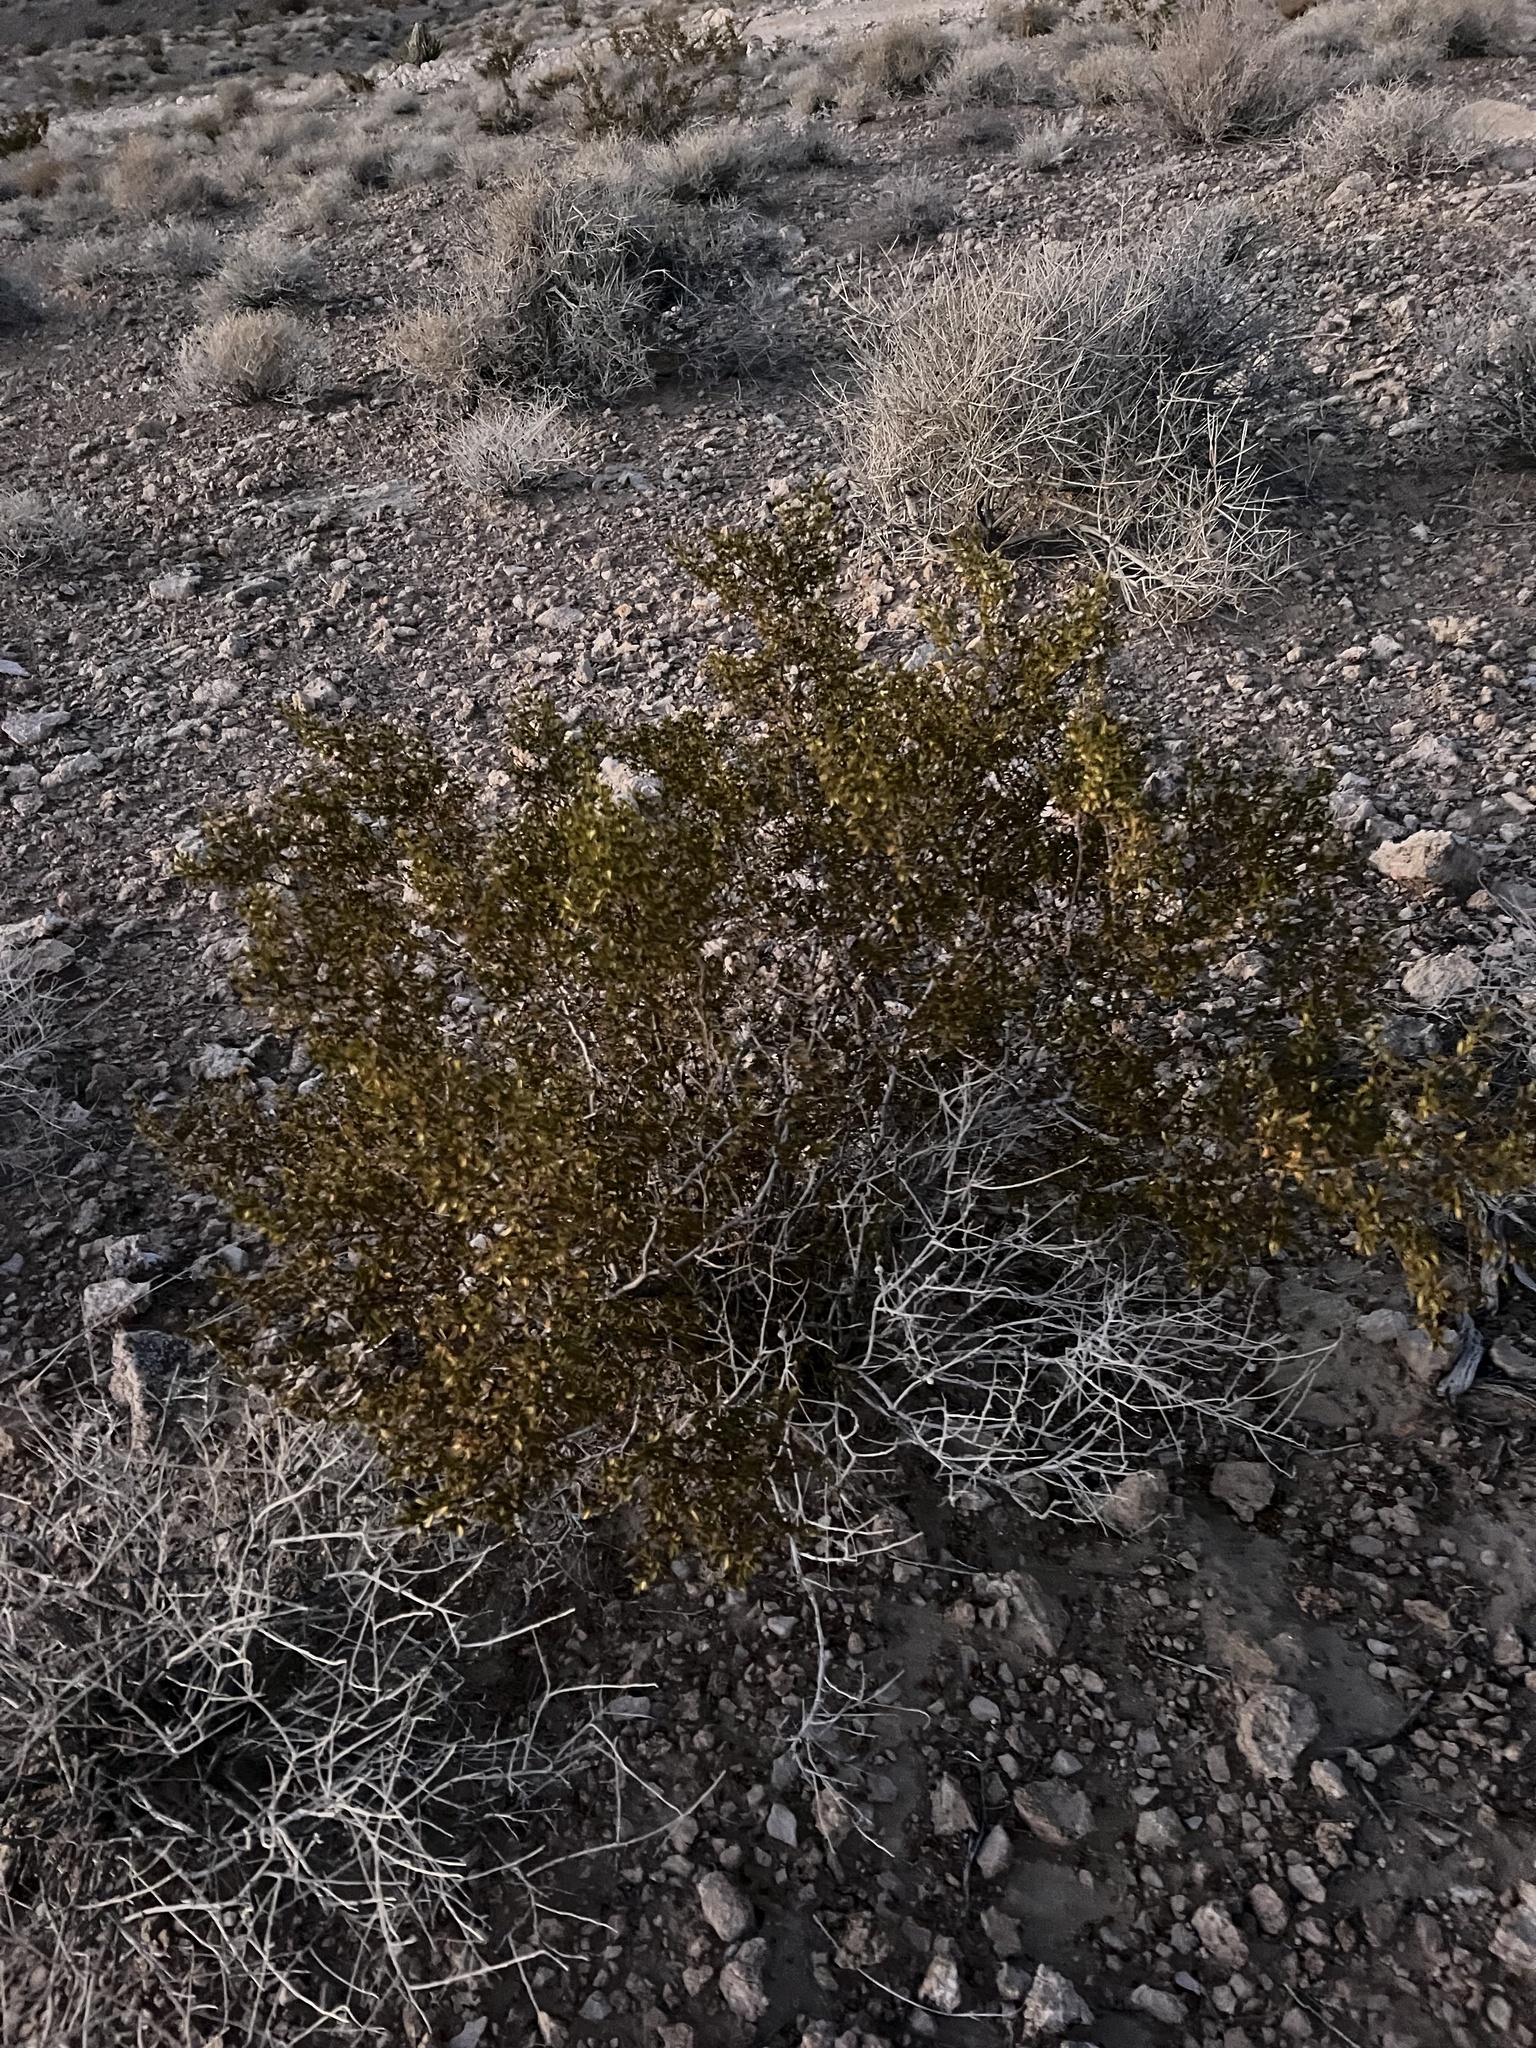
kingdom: Plantae
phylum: Tracheophyta
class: Magnoliopsida
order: Zygophyllales
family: Zygophyllaceae
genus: Larrea
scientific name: Larrea tridentata
